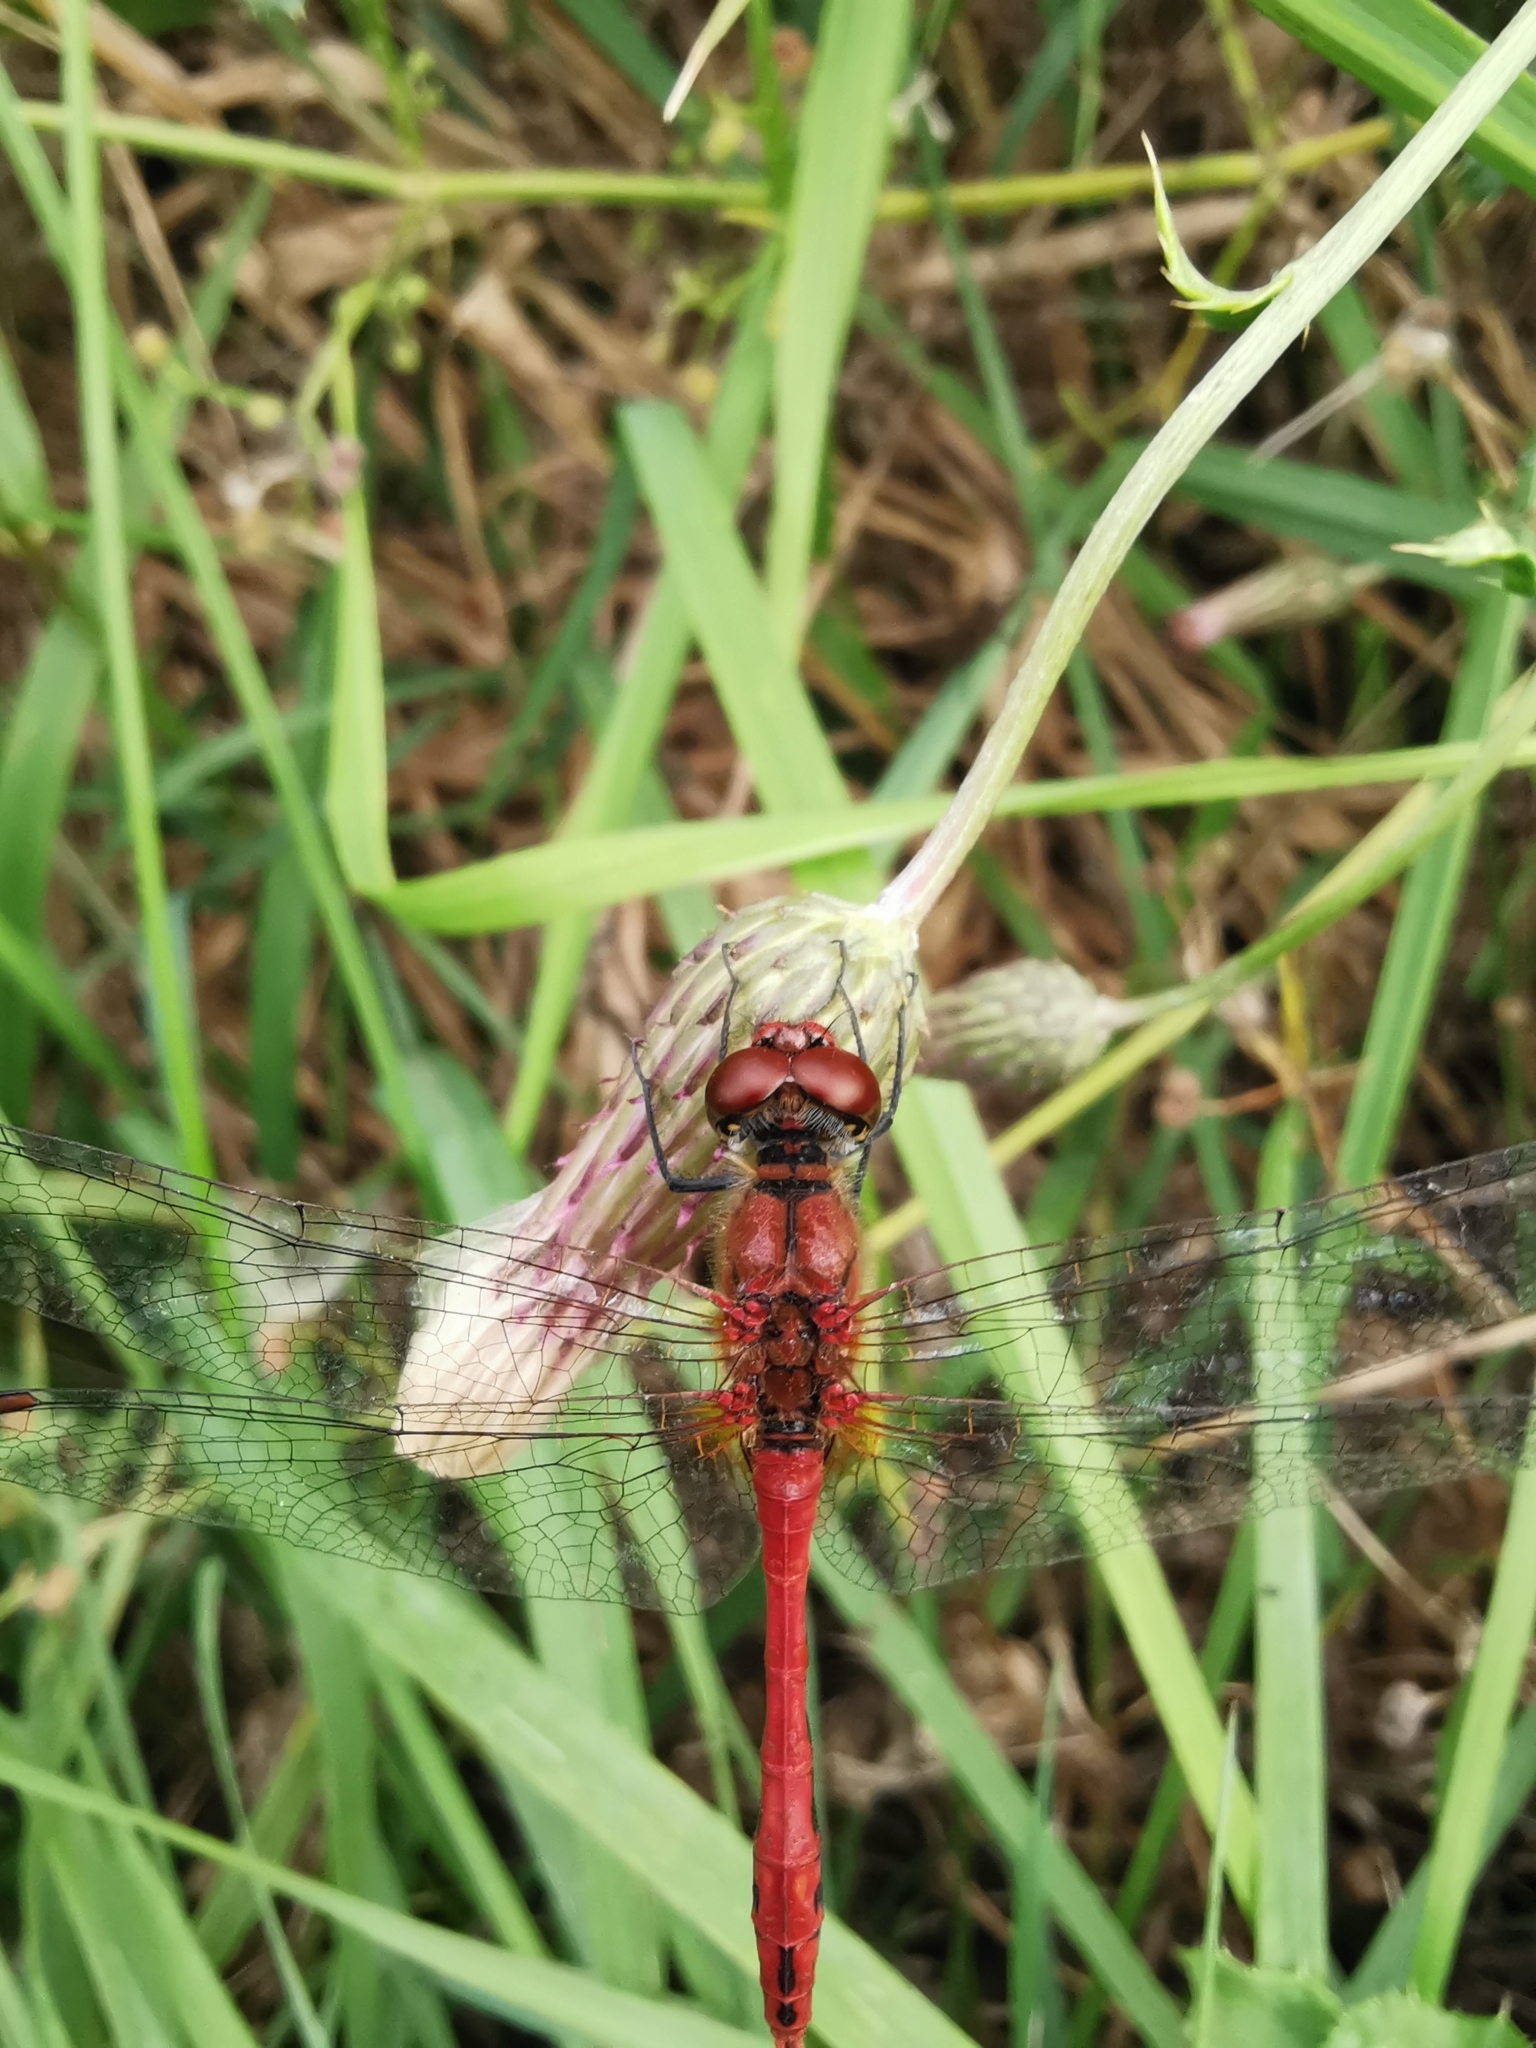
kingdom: Animalia
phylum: Arthropoda
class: Insecta
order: Odonata
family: Libellulidae
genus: Sympetrum
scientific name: Sympetrum sanguineum
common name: Ruddy darter
